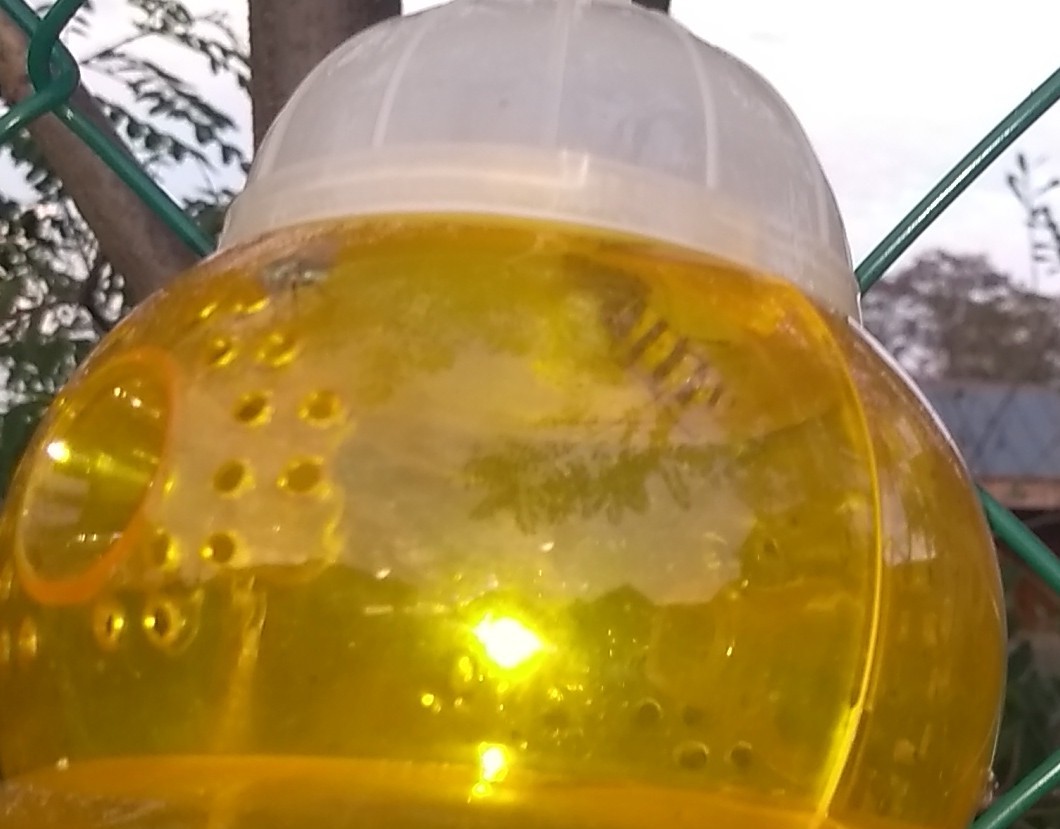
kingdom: Animalia
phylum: Arthropoda
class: Insecta
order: Hymenoptera
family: Vespidae
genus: Vespa
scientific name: Vespa crabro
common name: Hornet
